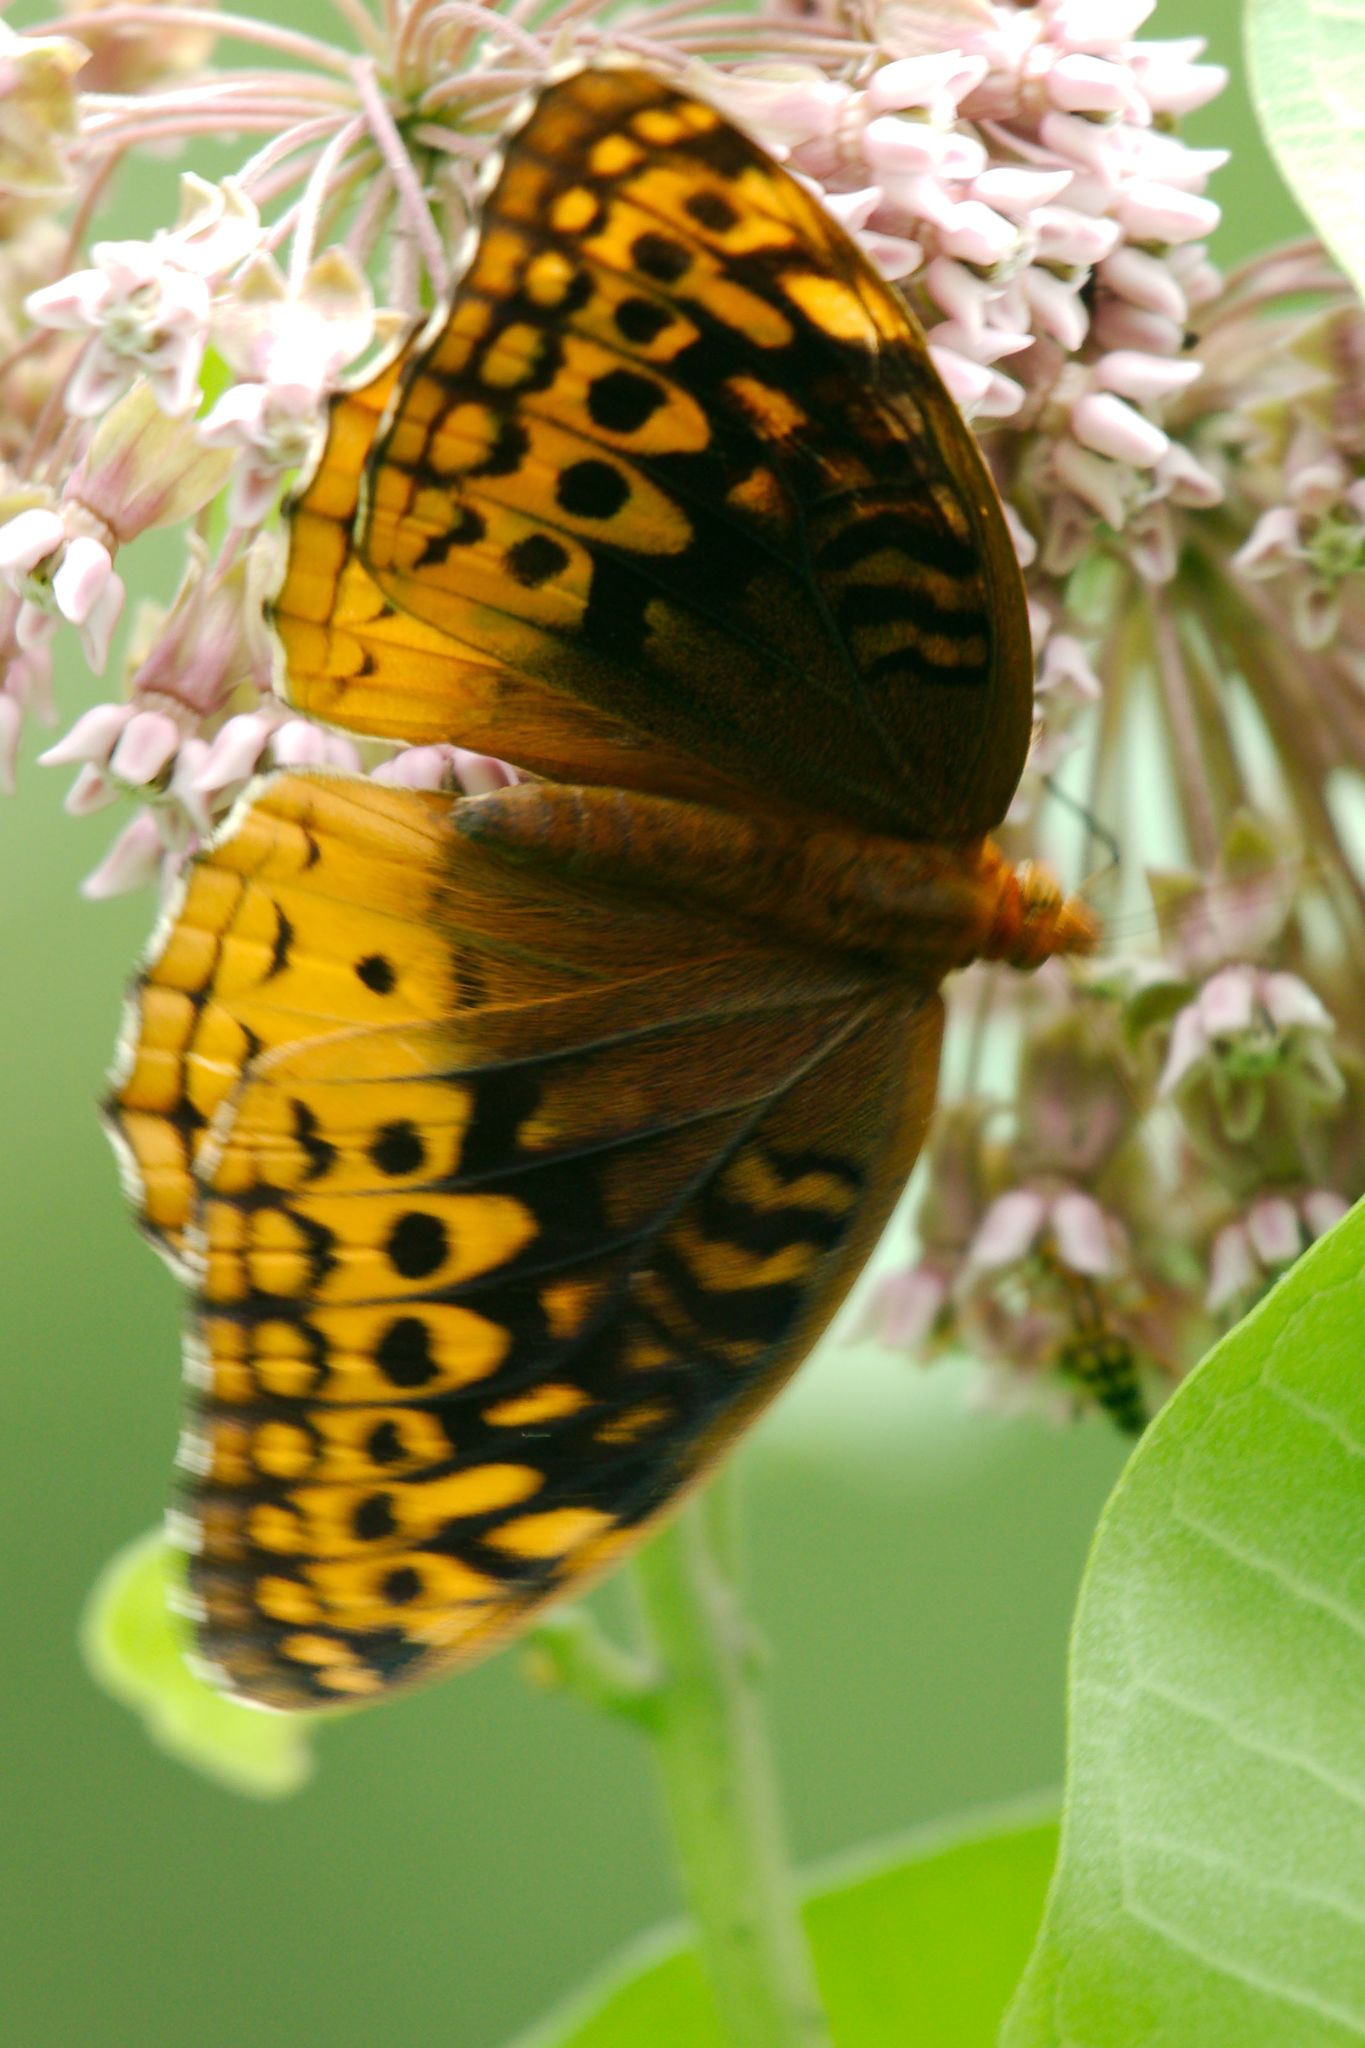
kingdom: Animalia
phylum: Arthropoda
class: Insecta
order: Lepidoptera
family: Nymphalidae
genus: Speyeria
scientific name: Speyeria cybele
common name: Great spangled fritillary
